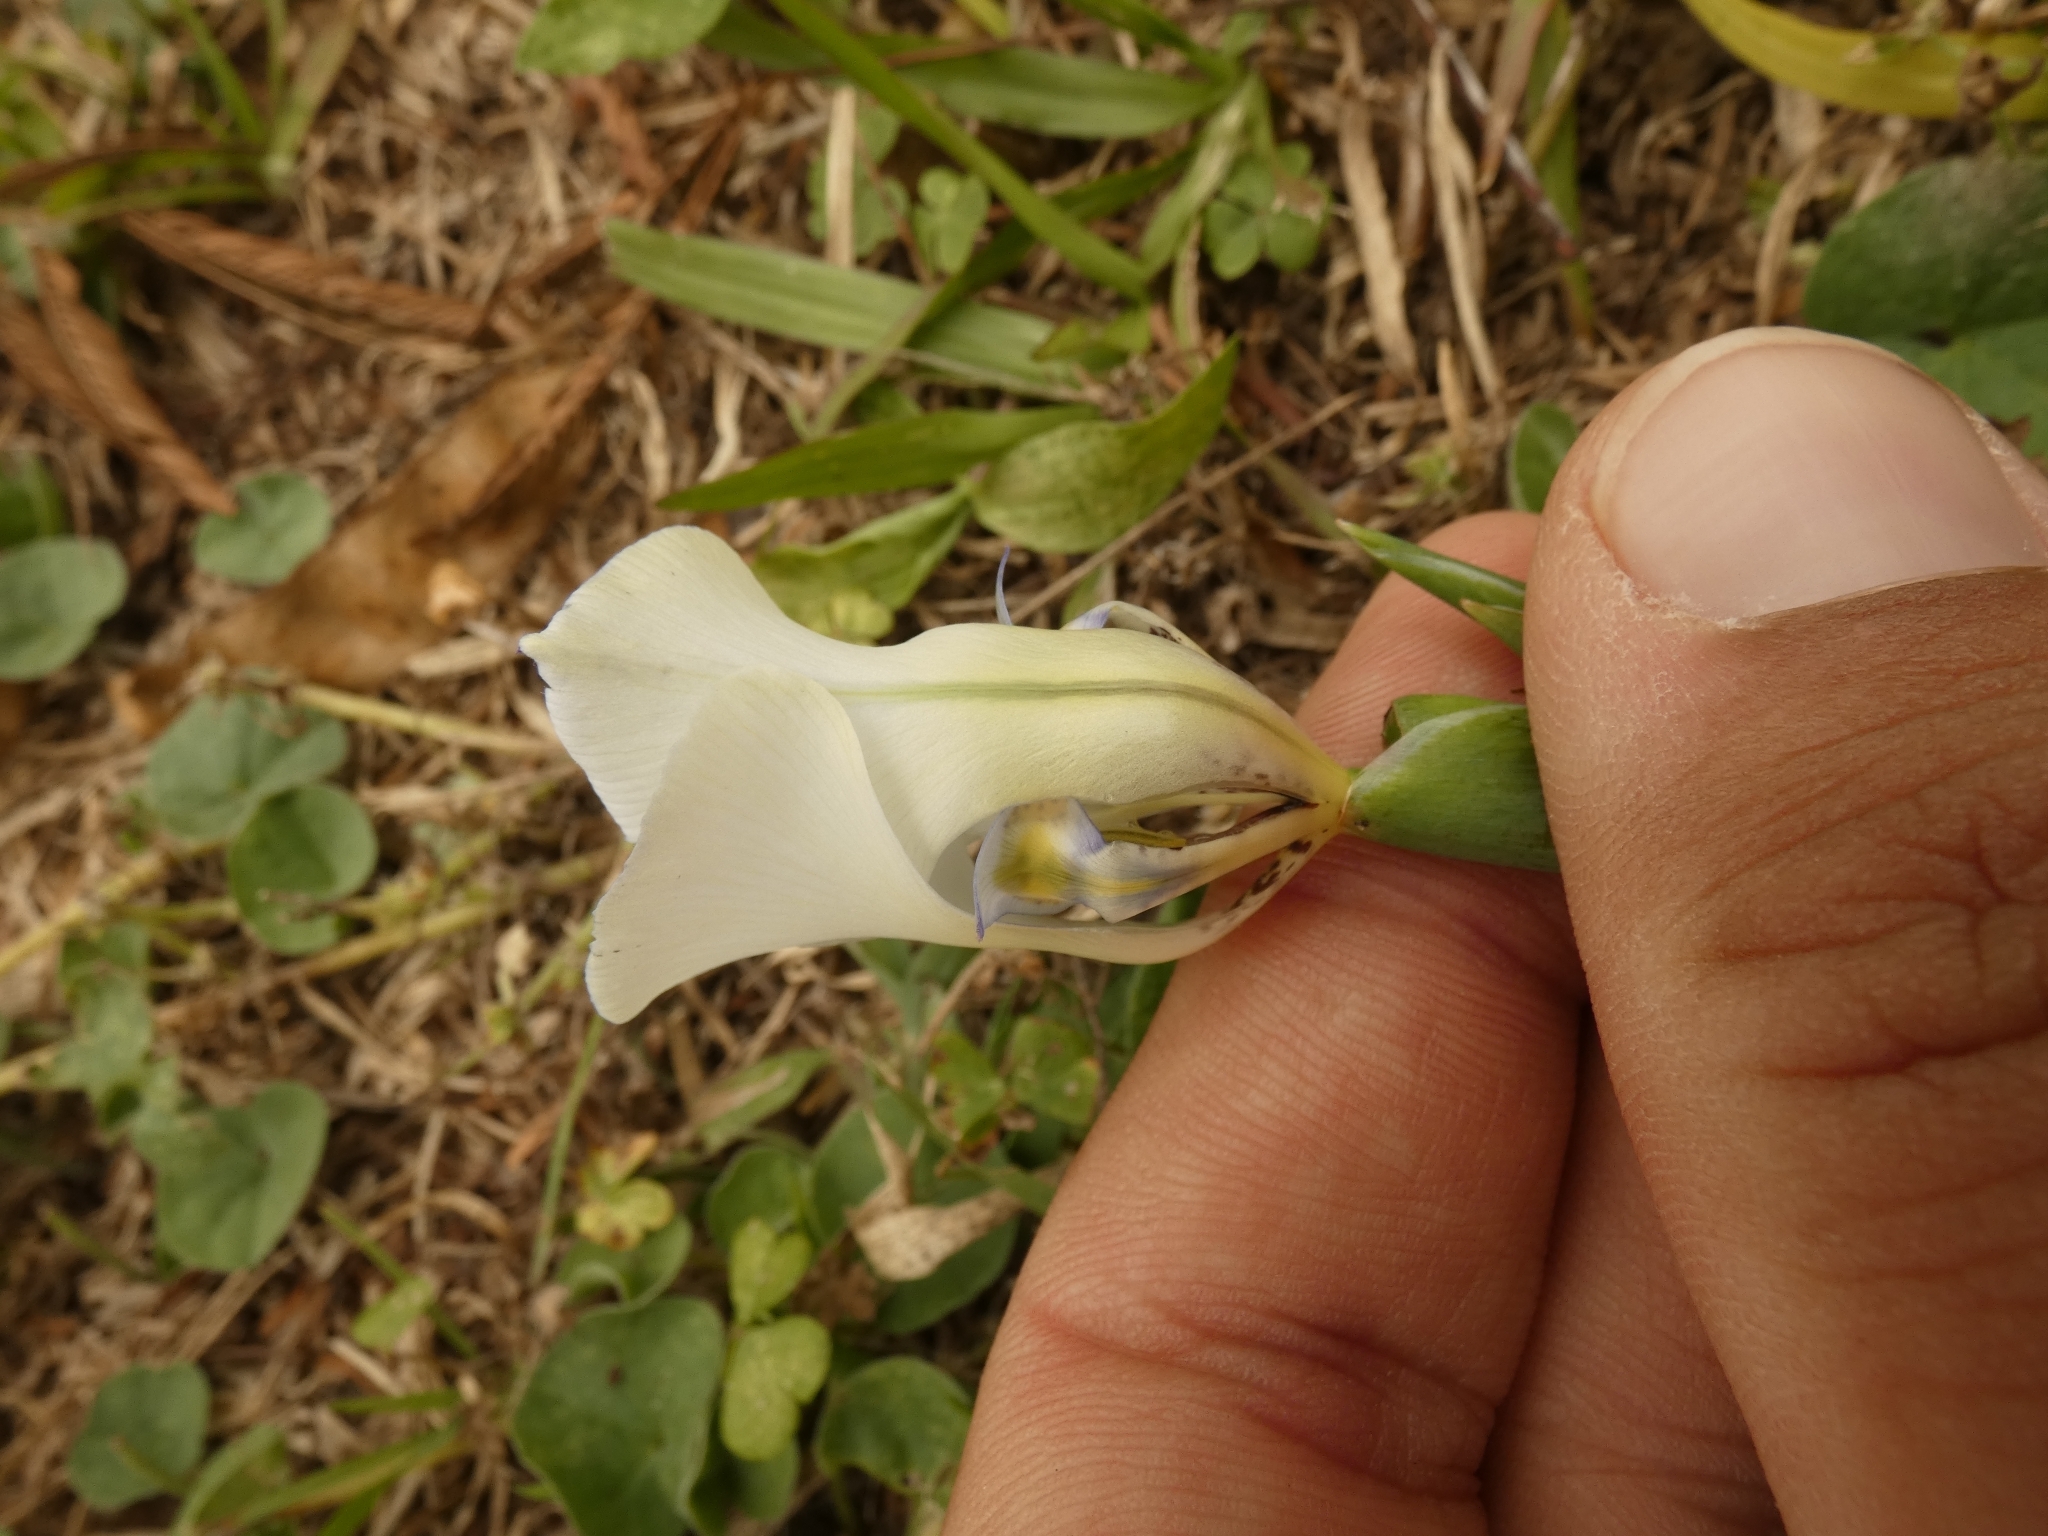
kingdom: Plantae
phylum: Tracheophyta
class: Liliopsida
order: Asparagales
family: Iridaceae
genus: Cypella
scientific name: Cypella opalina
